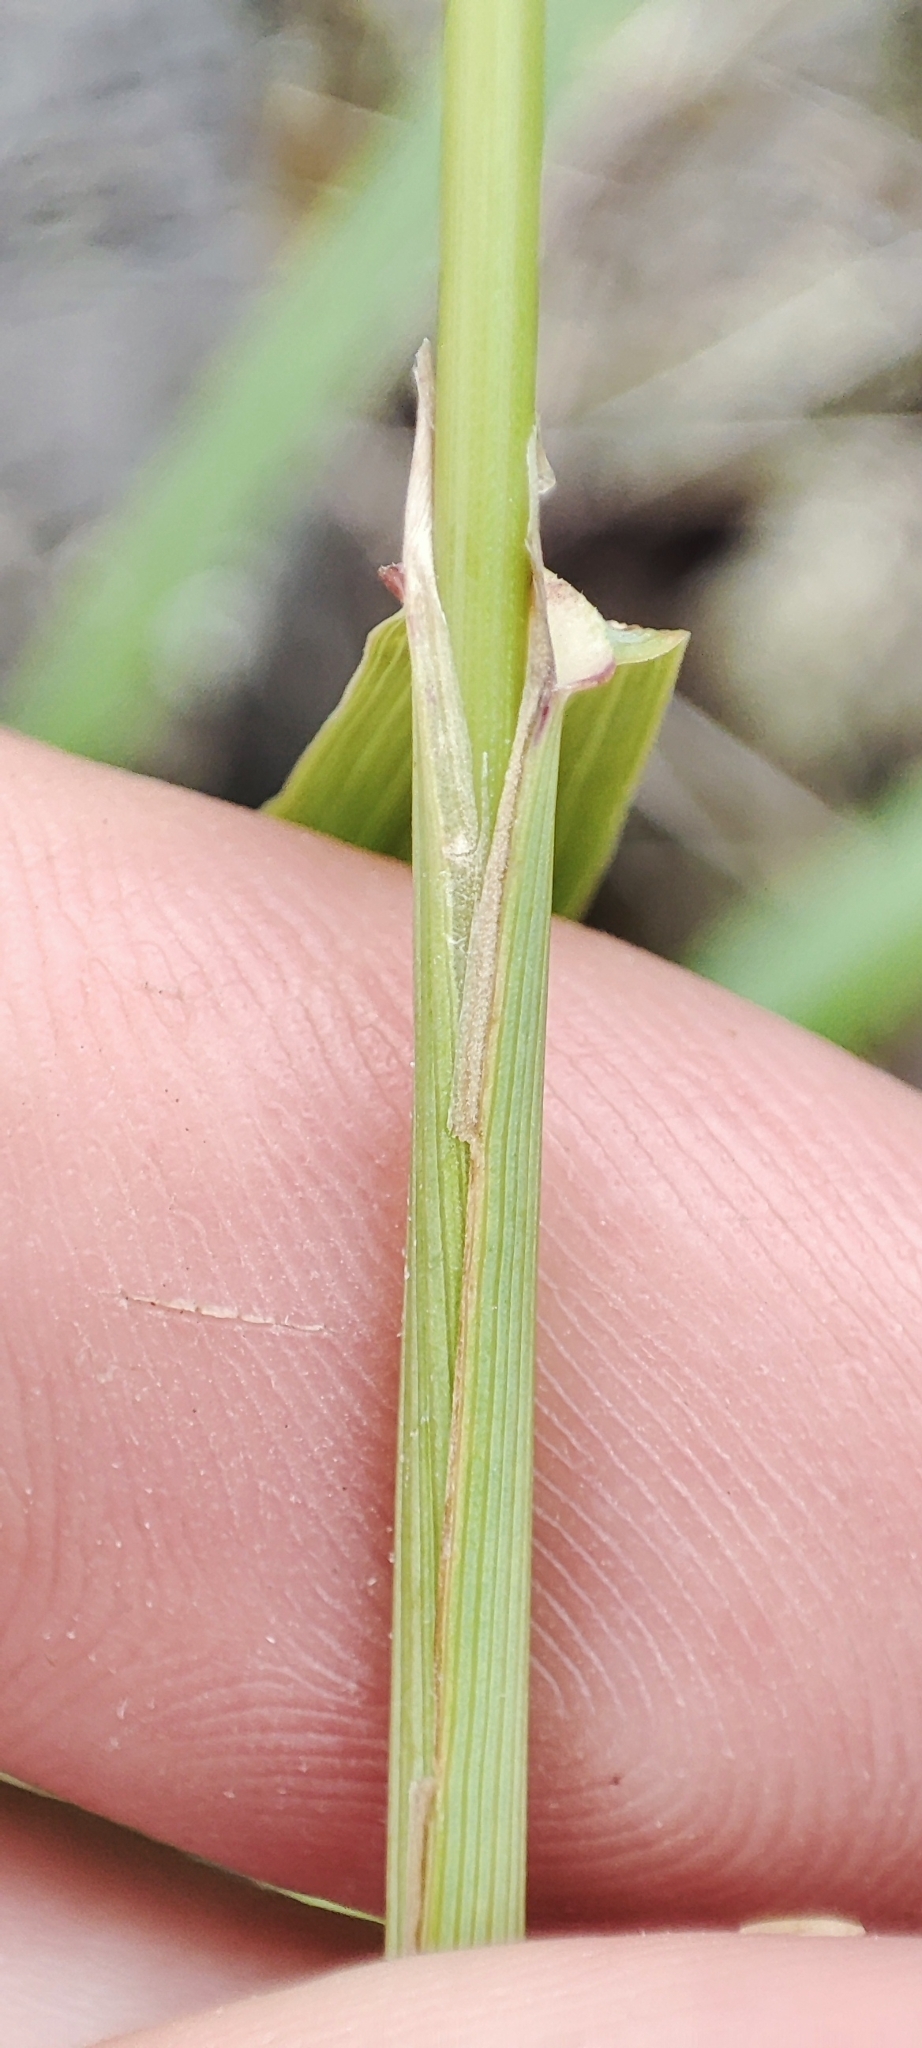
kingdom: Plantae
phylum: Tracheophyta
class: Liliopsida
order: Poales
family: Poaceae
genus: Calamagrostis
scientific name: Calamagrostis epigejos
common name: Wood small-reed
